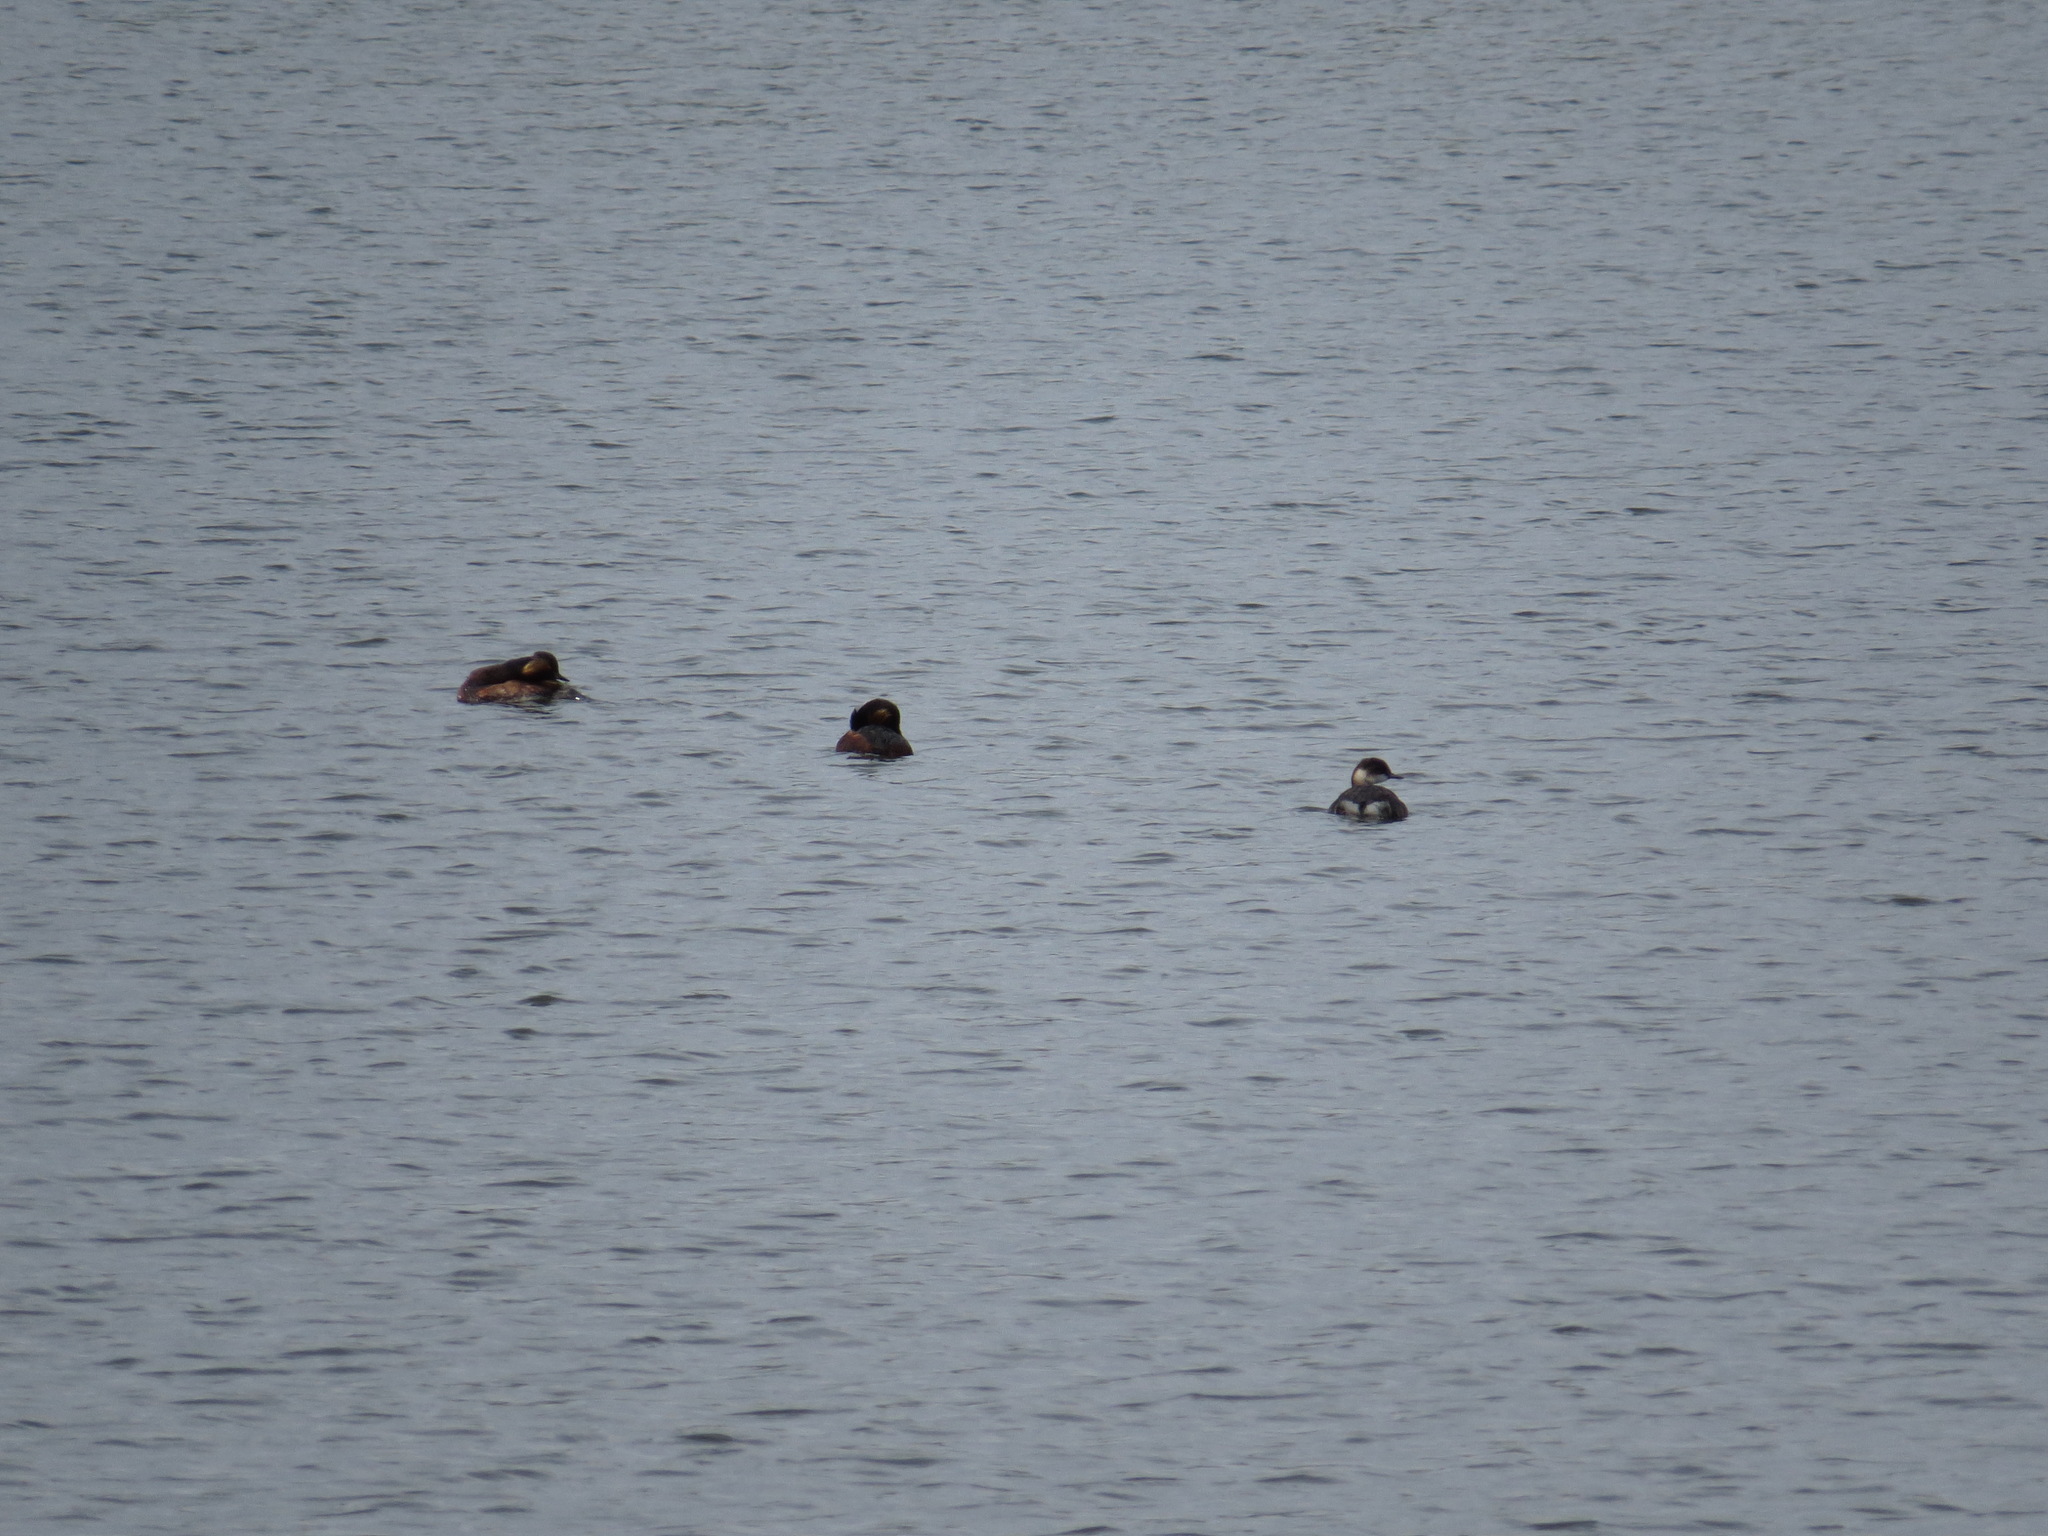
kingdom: Animalia
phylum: Chordata
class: Aves
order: Podicipediformes
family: Podicipedidae
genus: Podiceps
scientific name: Podiceps nigricollis
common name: Black-necked grebe
